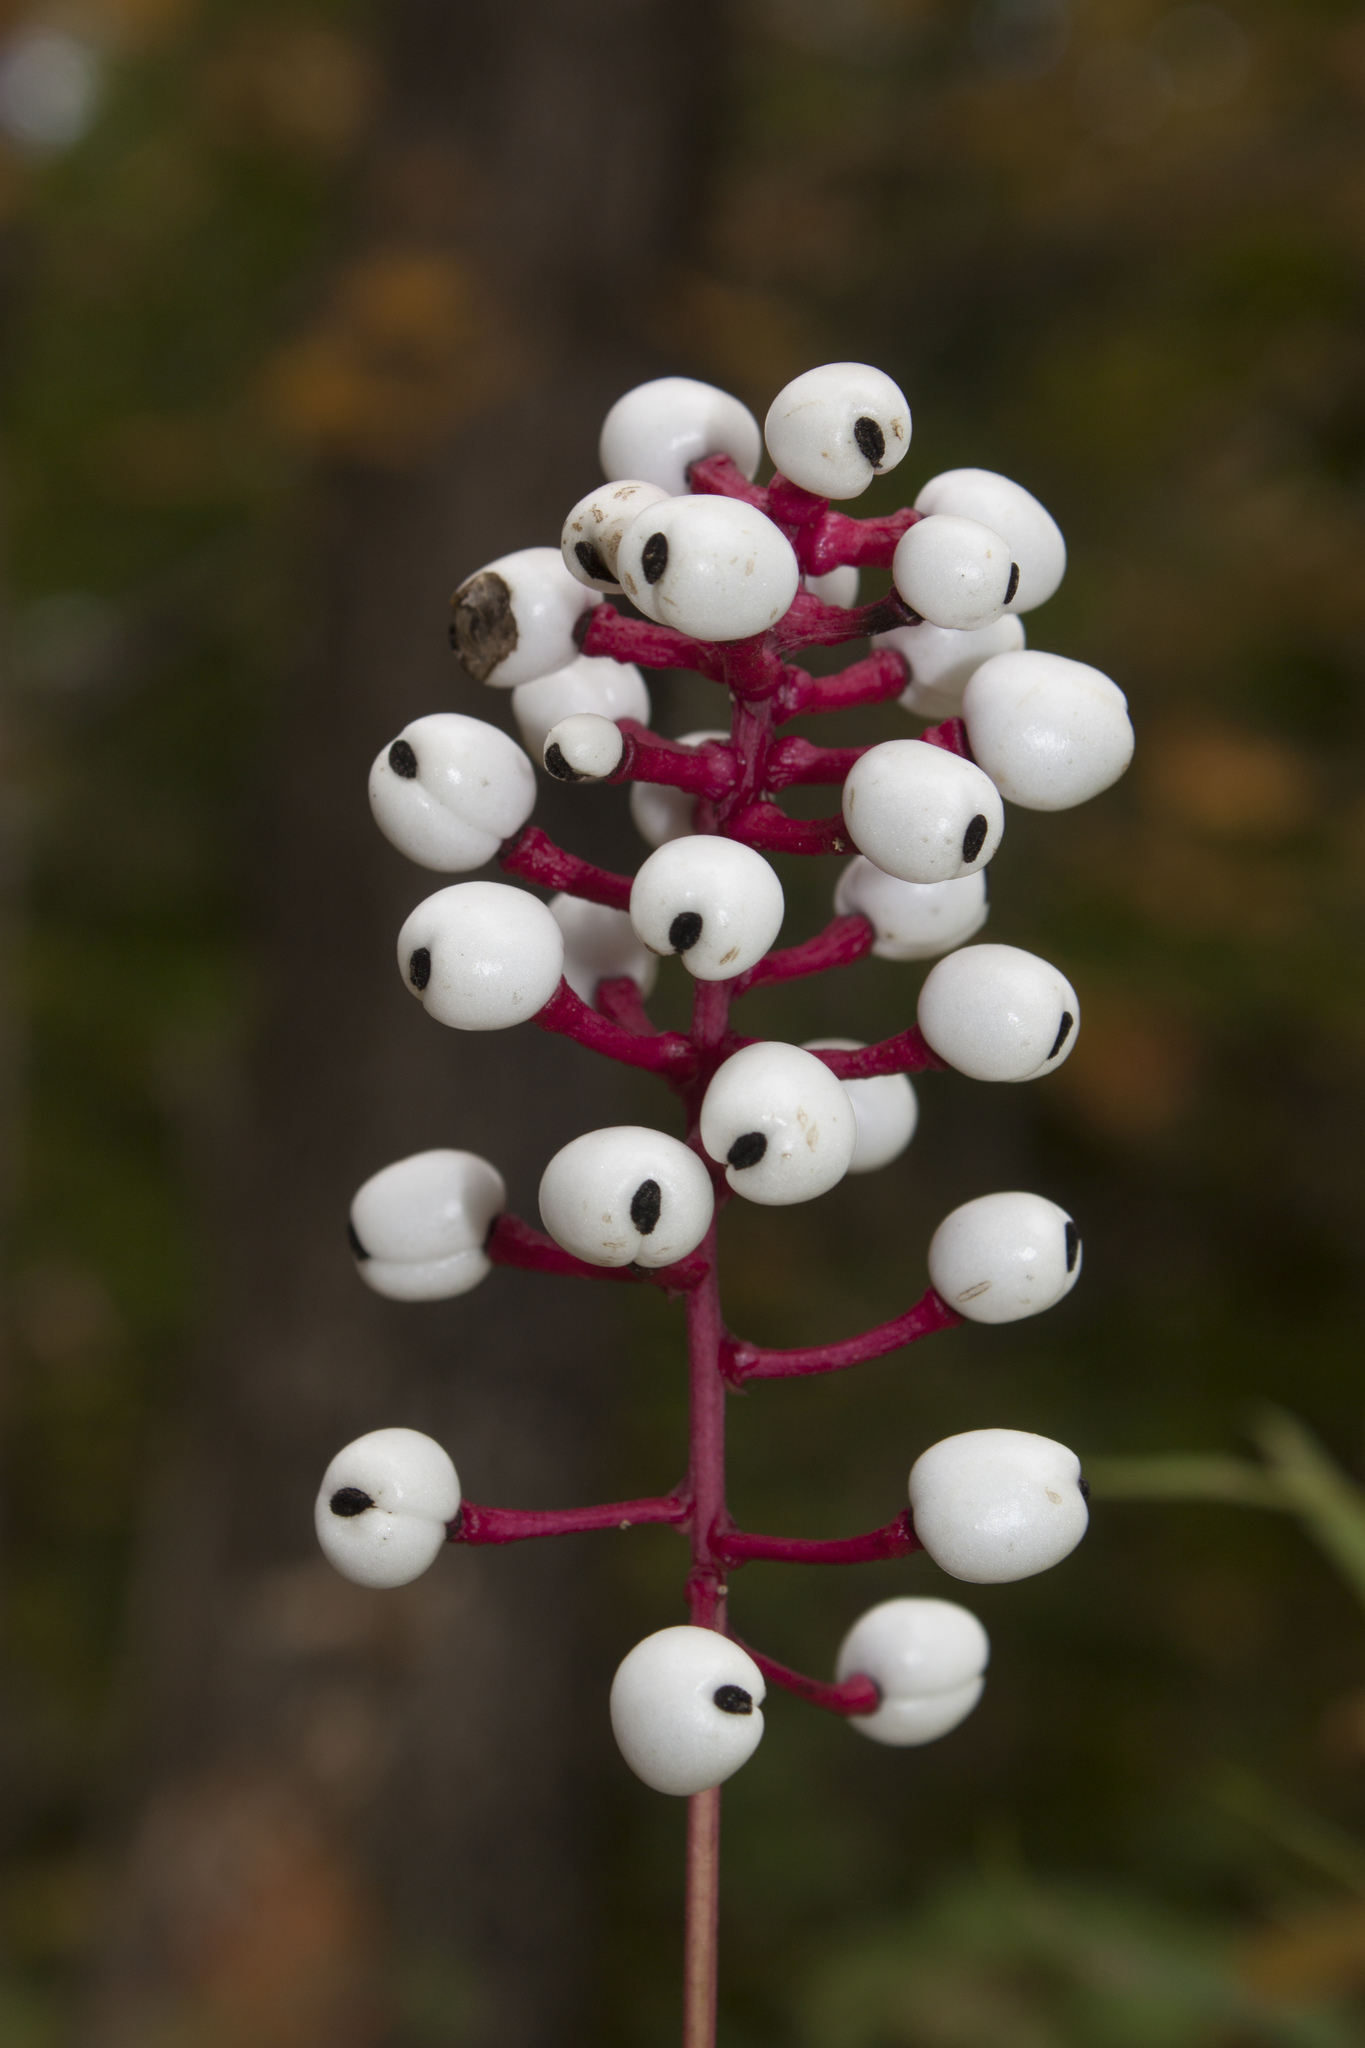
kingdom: Plantae
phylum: Tracheophyta
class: Magnoliopsida
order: Ranunculales
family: Ranunculaceae
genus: Actaea
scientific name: Actaea pachypoda
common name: Doll's-eyes
